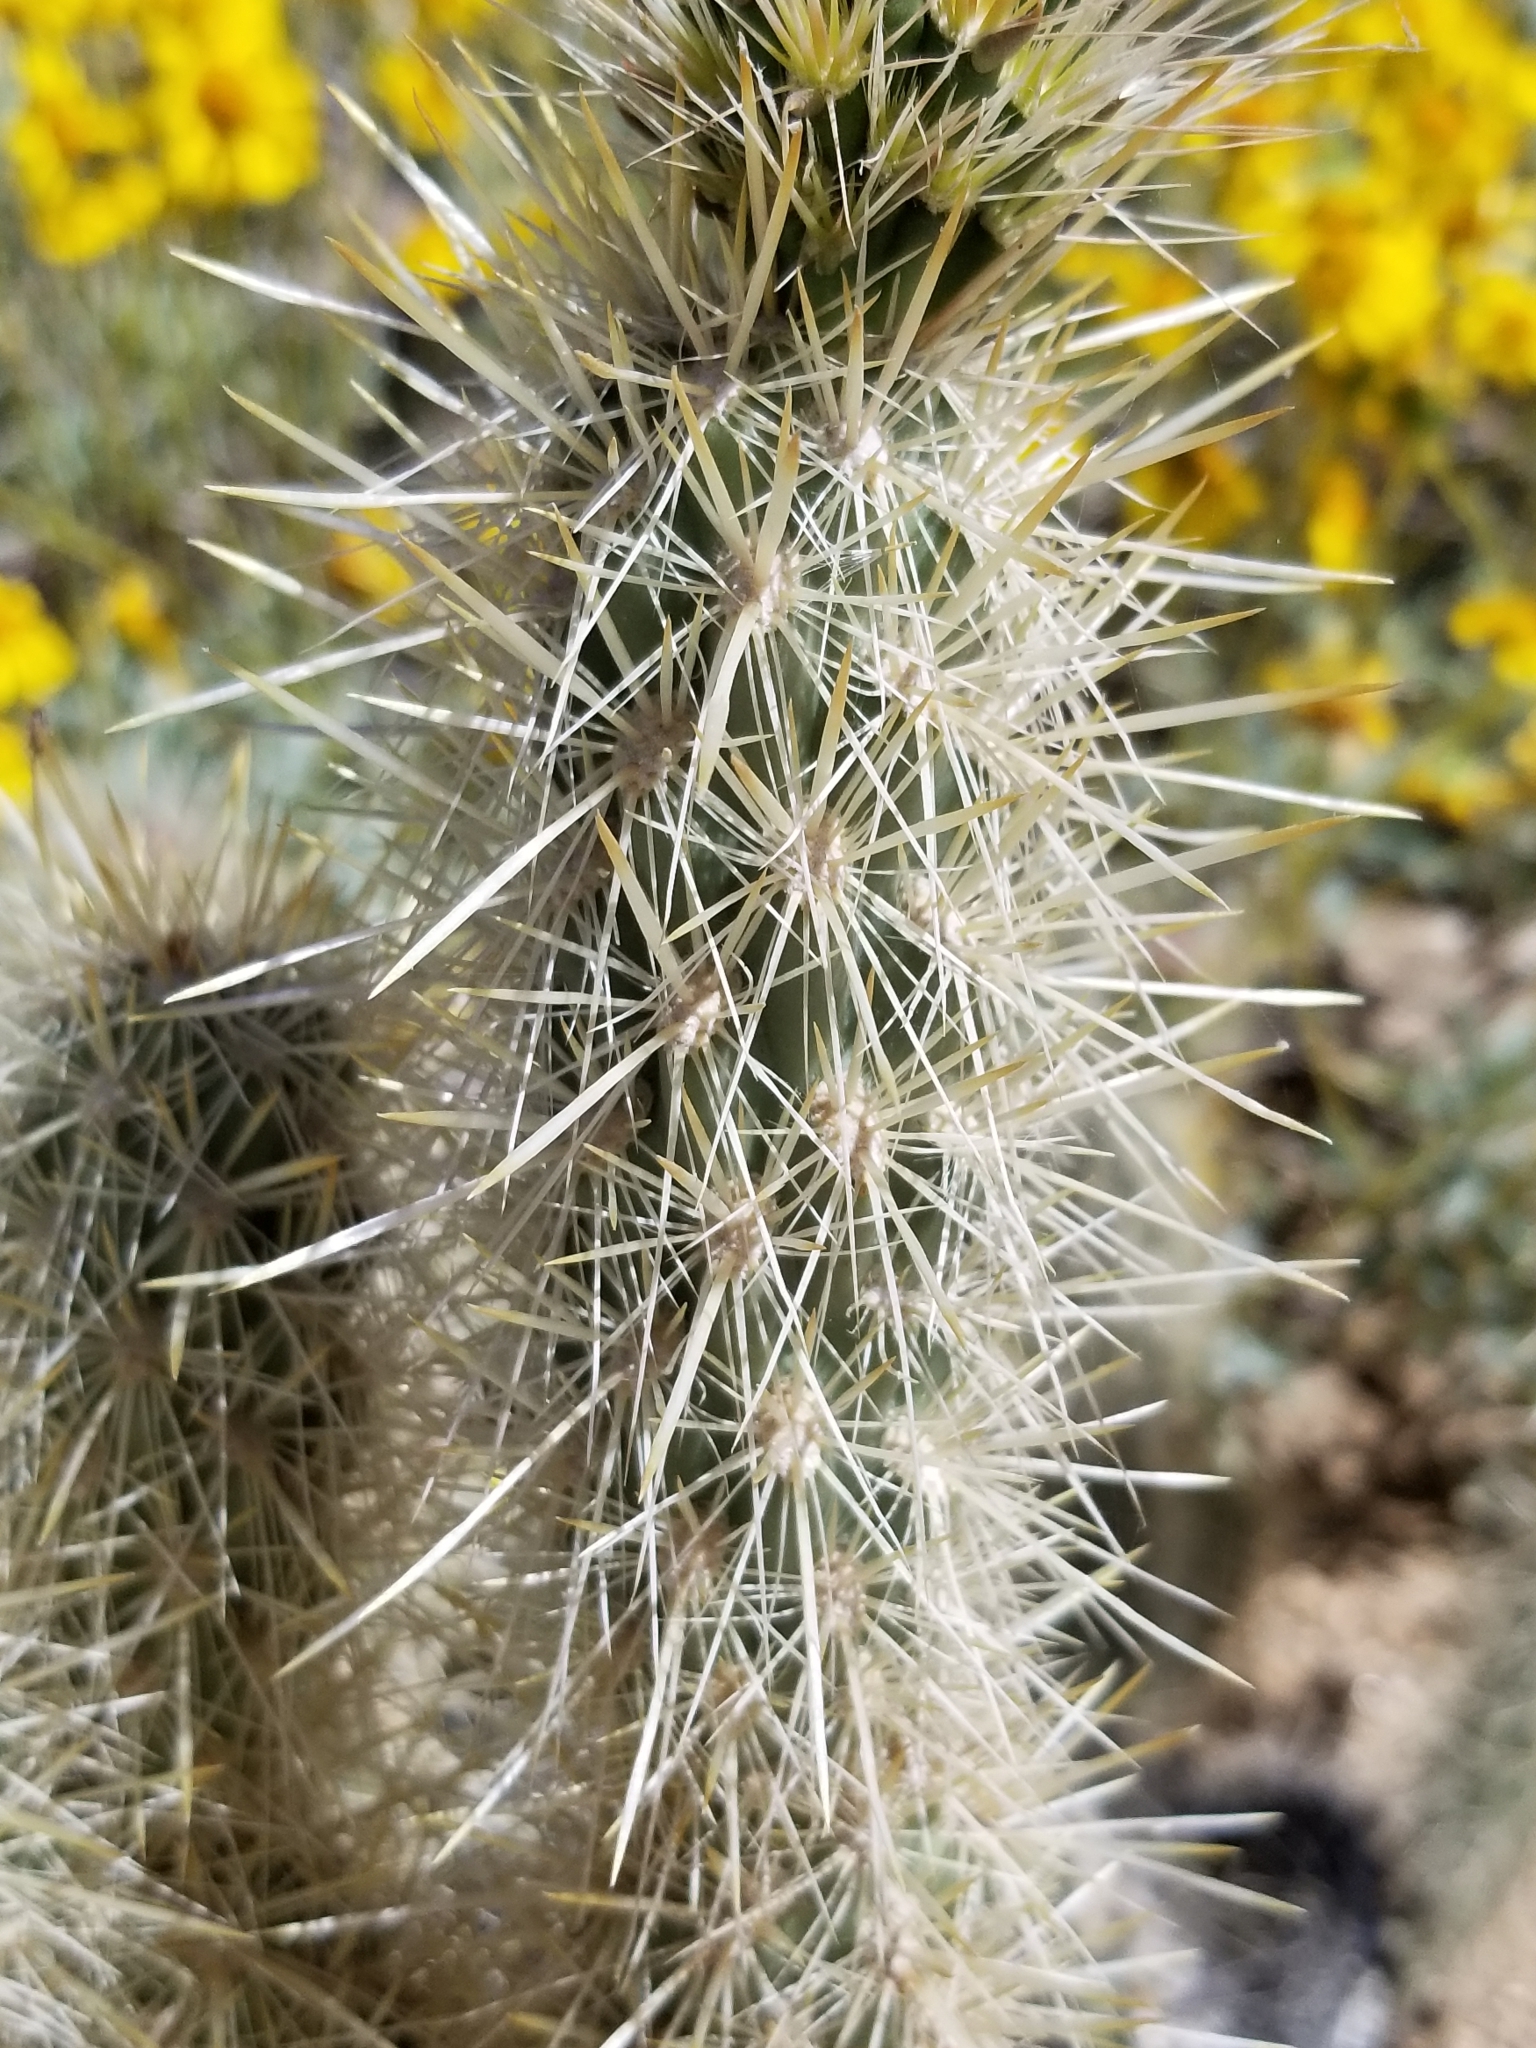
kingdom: Plantae
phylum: Tracheophyta
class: Magnoliopsida
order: Caryophyllales
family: Cactaceae
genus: Cylindropuntia
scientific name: Cylindropuntia echinocarpa
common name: Ground cholla
